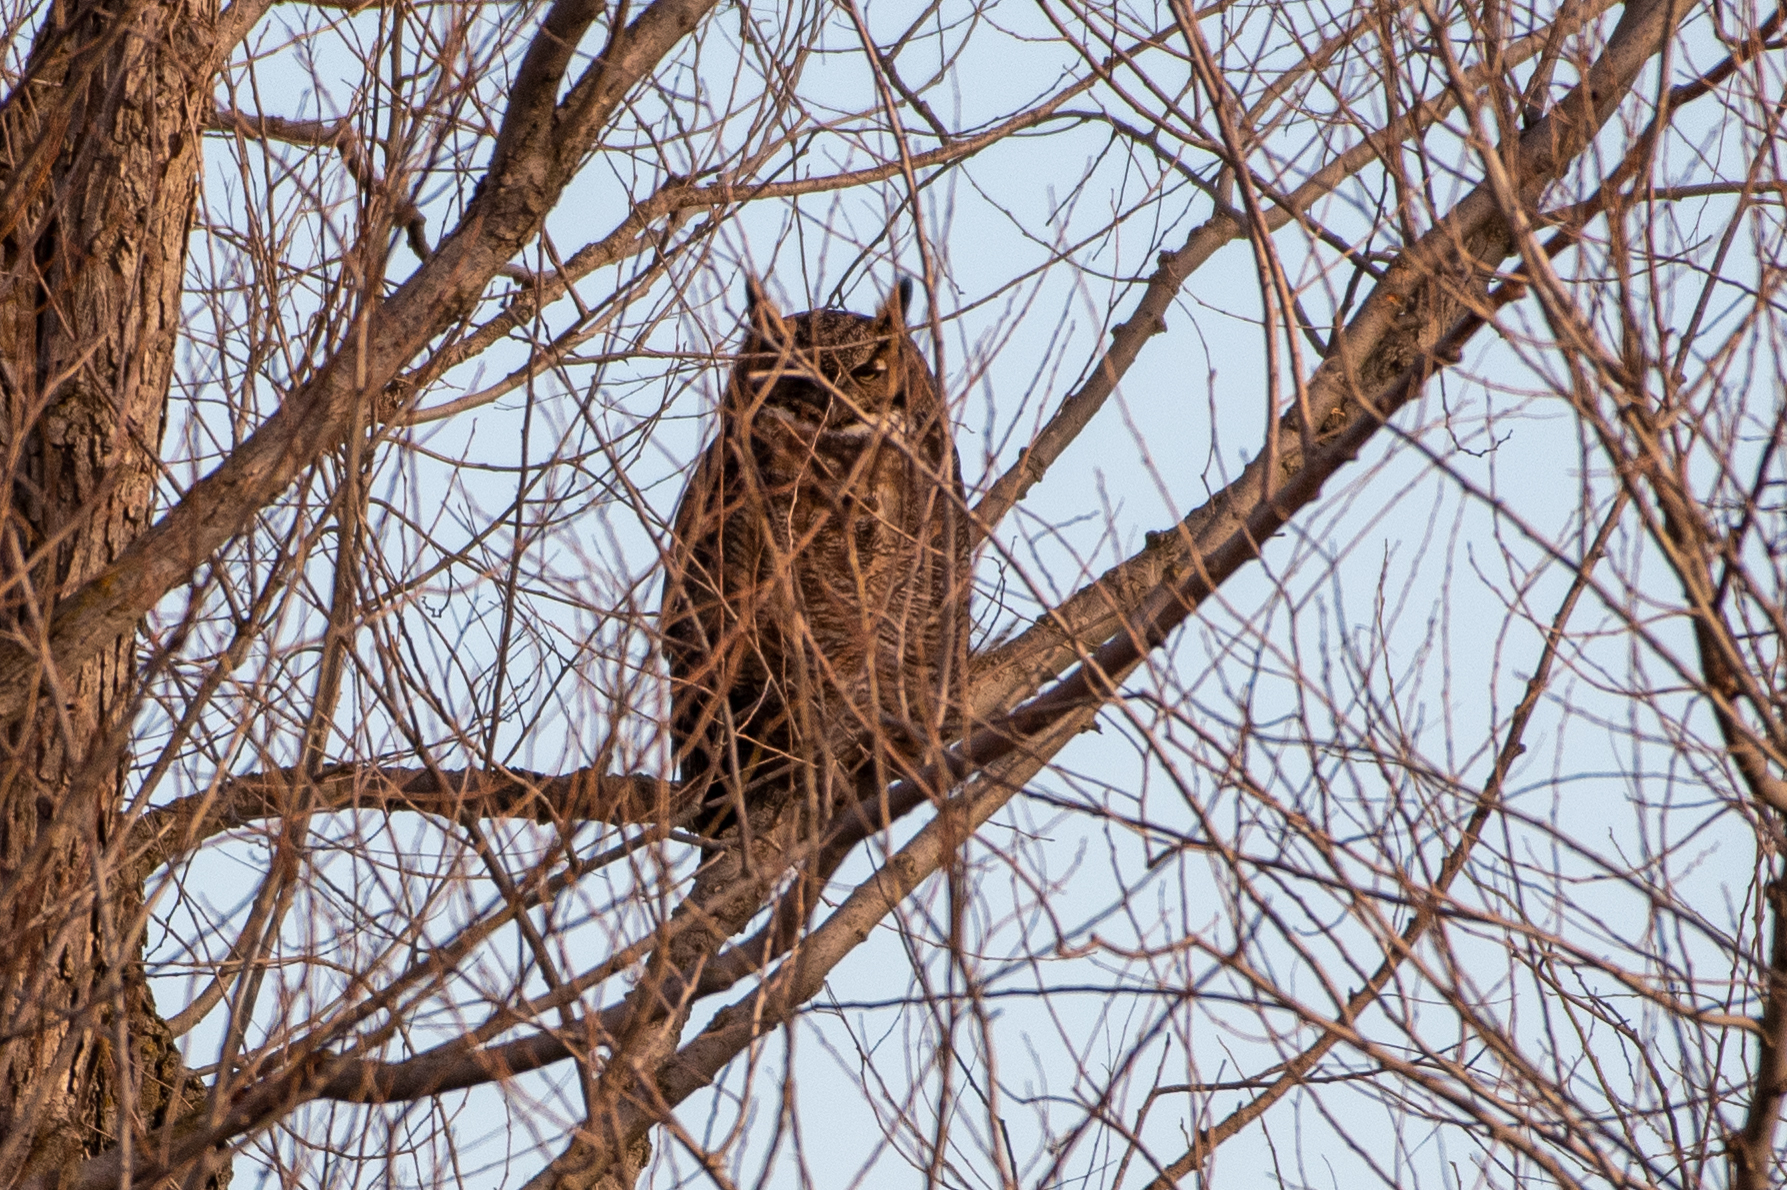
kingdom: Animalia
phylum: Chordata
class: Aves
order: Strigiformes
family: Strigidae
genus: Bubo
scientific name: Bubo virginianus
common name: Great horned owl
